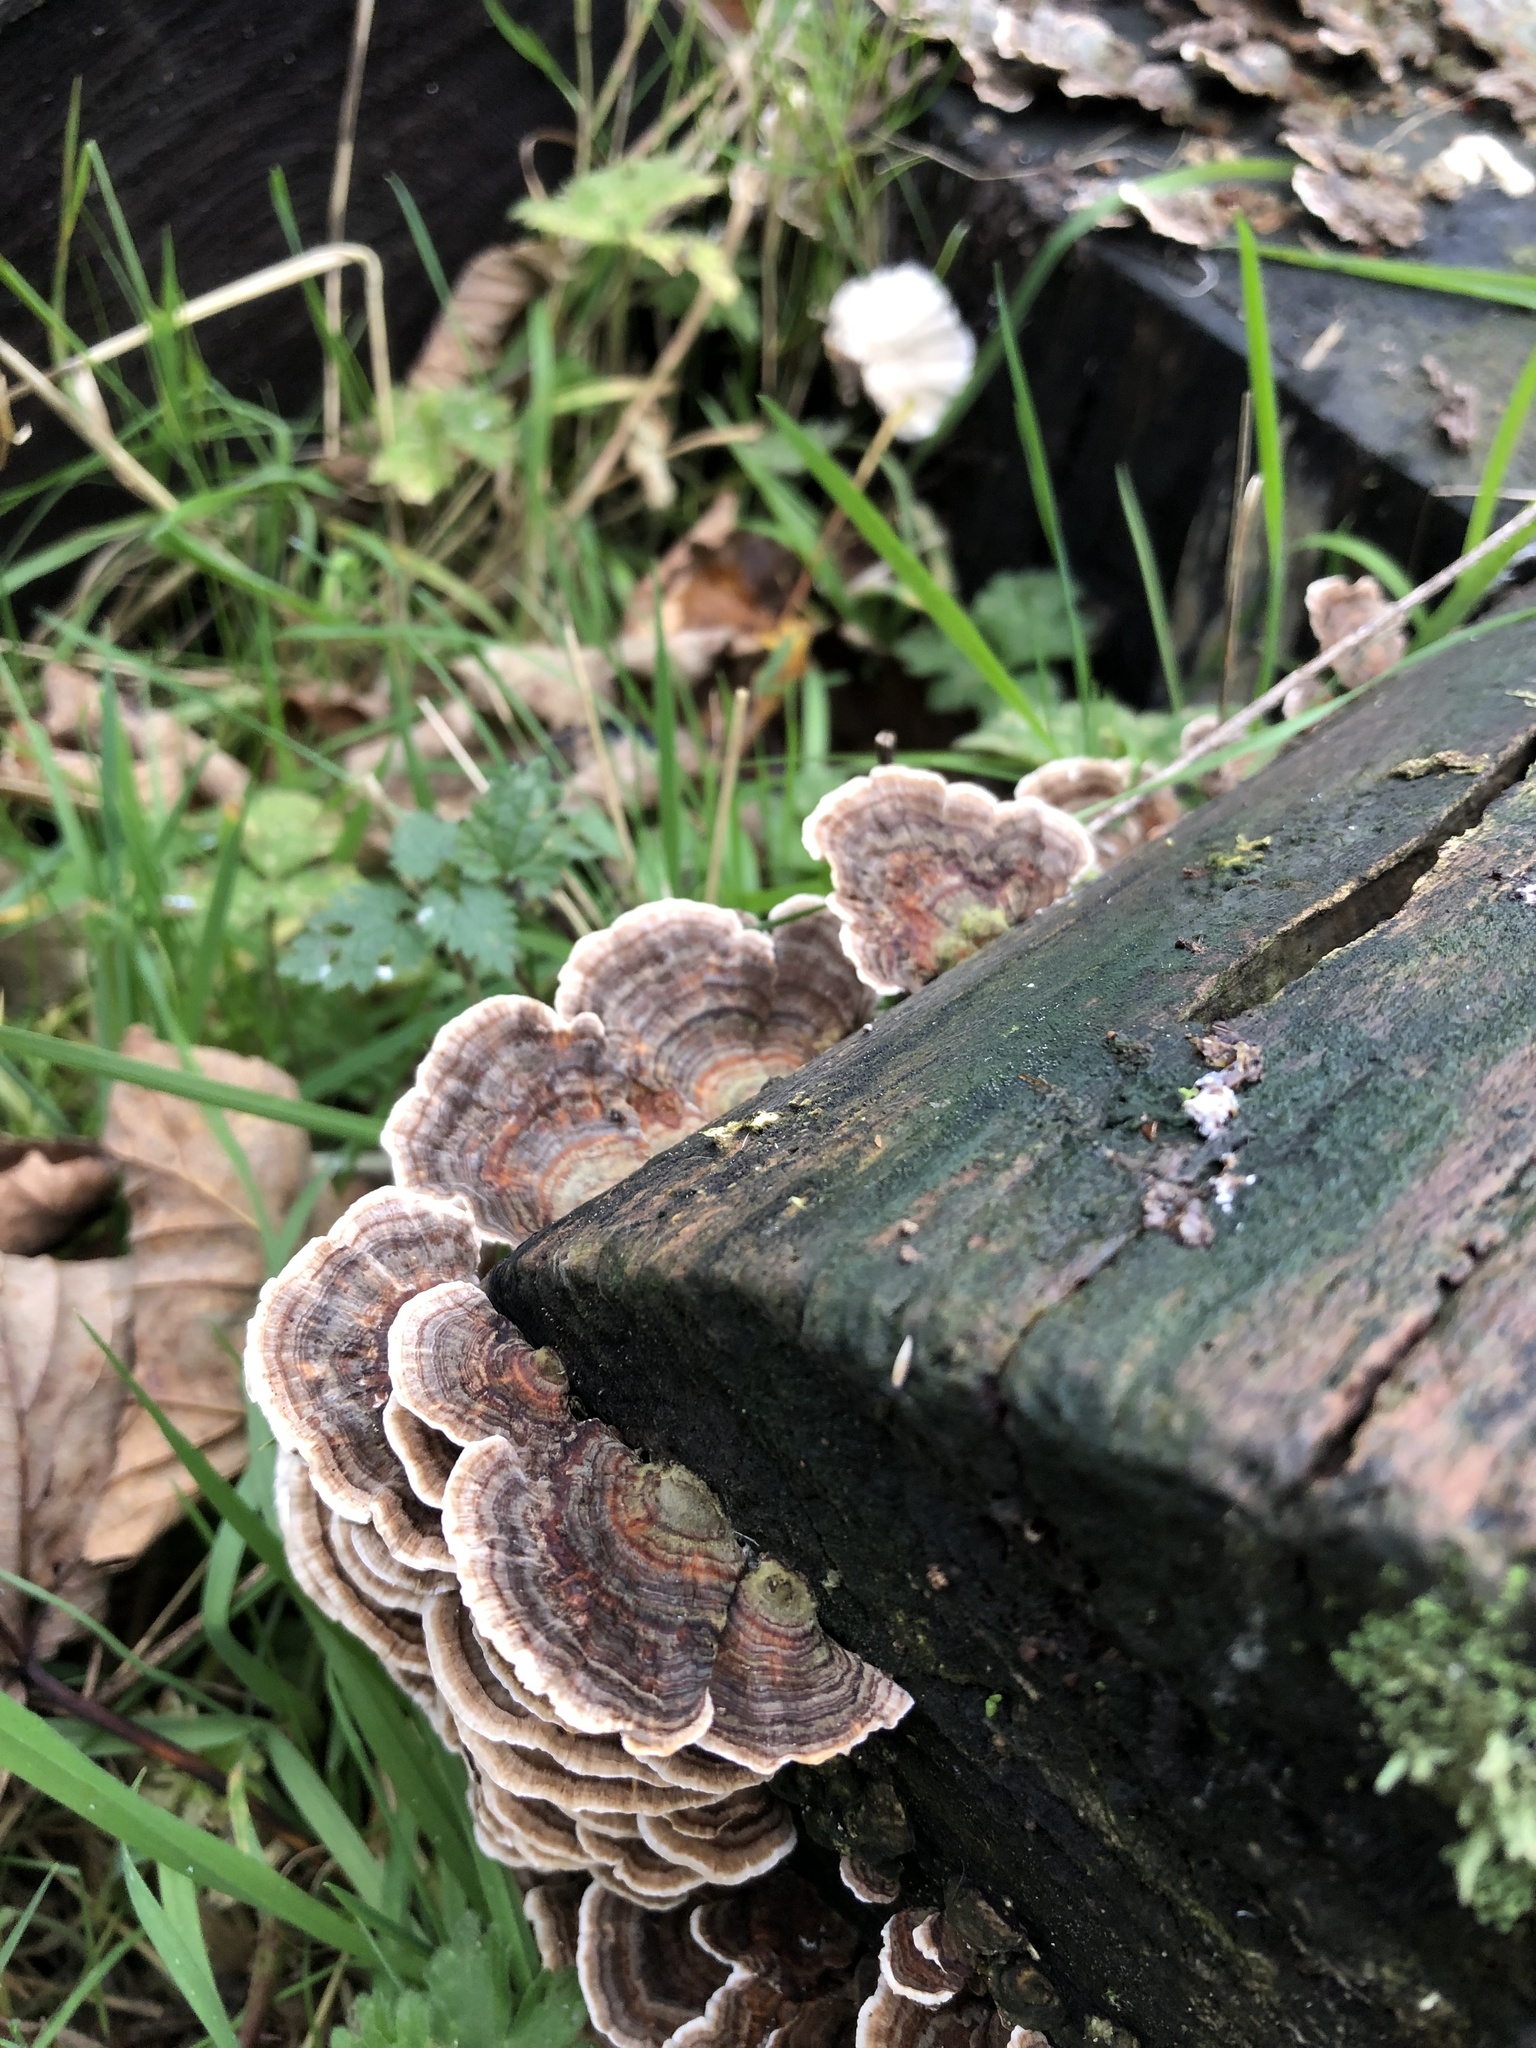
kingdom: Fungi
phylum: Basidiomycota
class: Agaricomycetes
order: Polyporales
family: Polyporaceae
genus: Trametes
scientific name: Trametes versicolor
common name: Turkeytail
